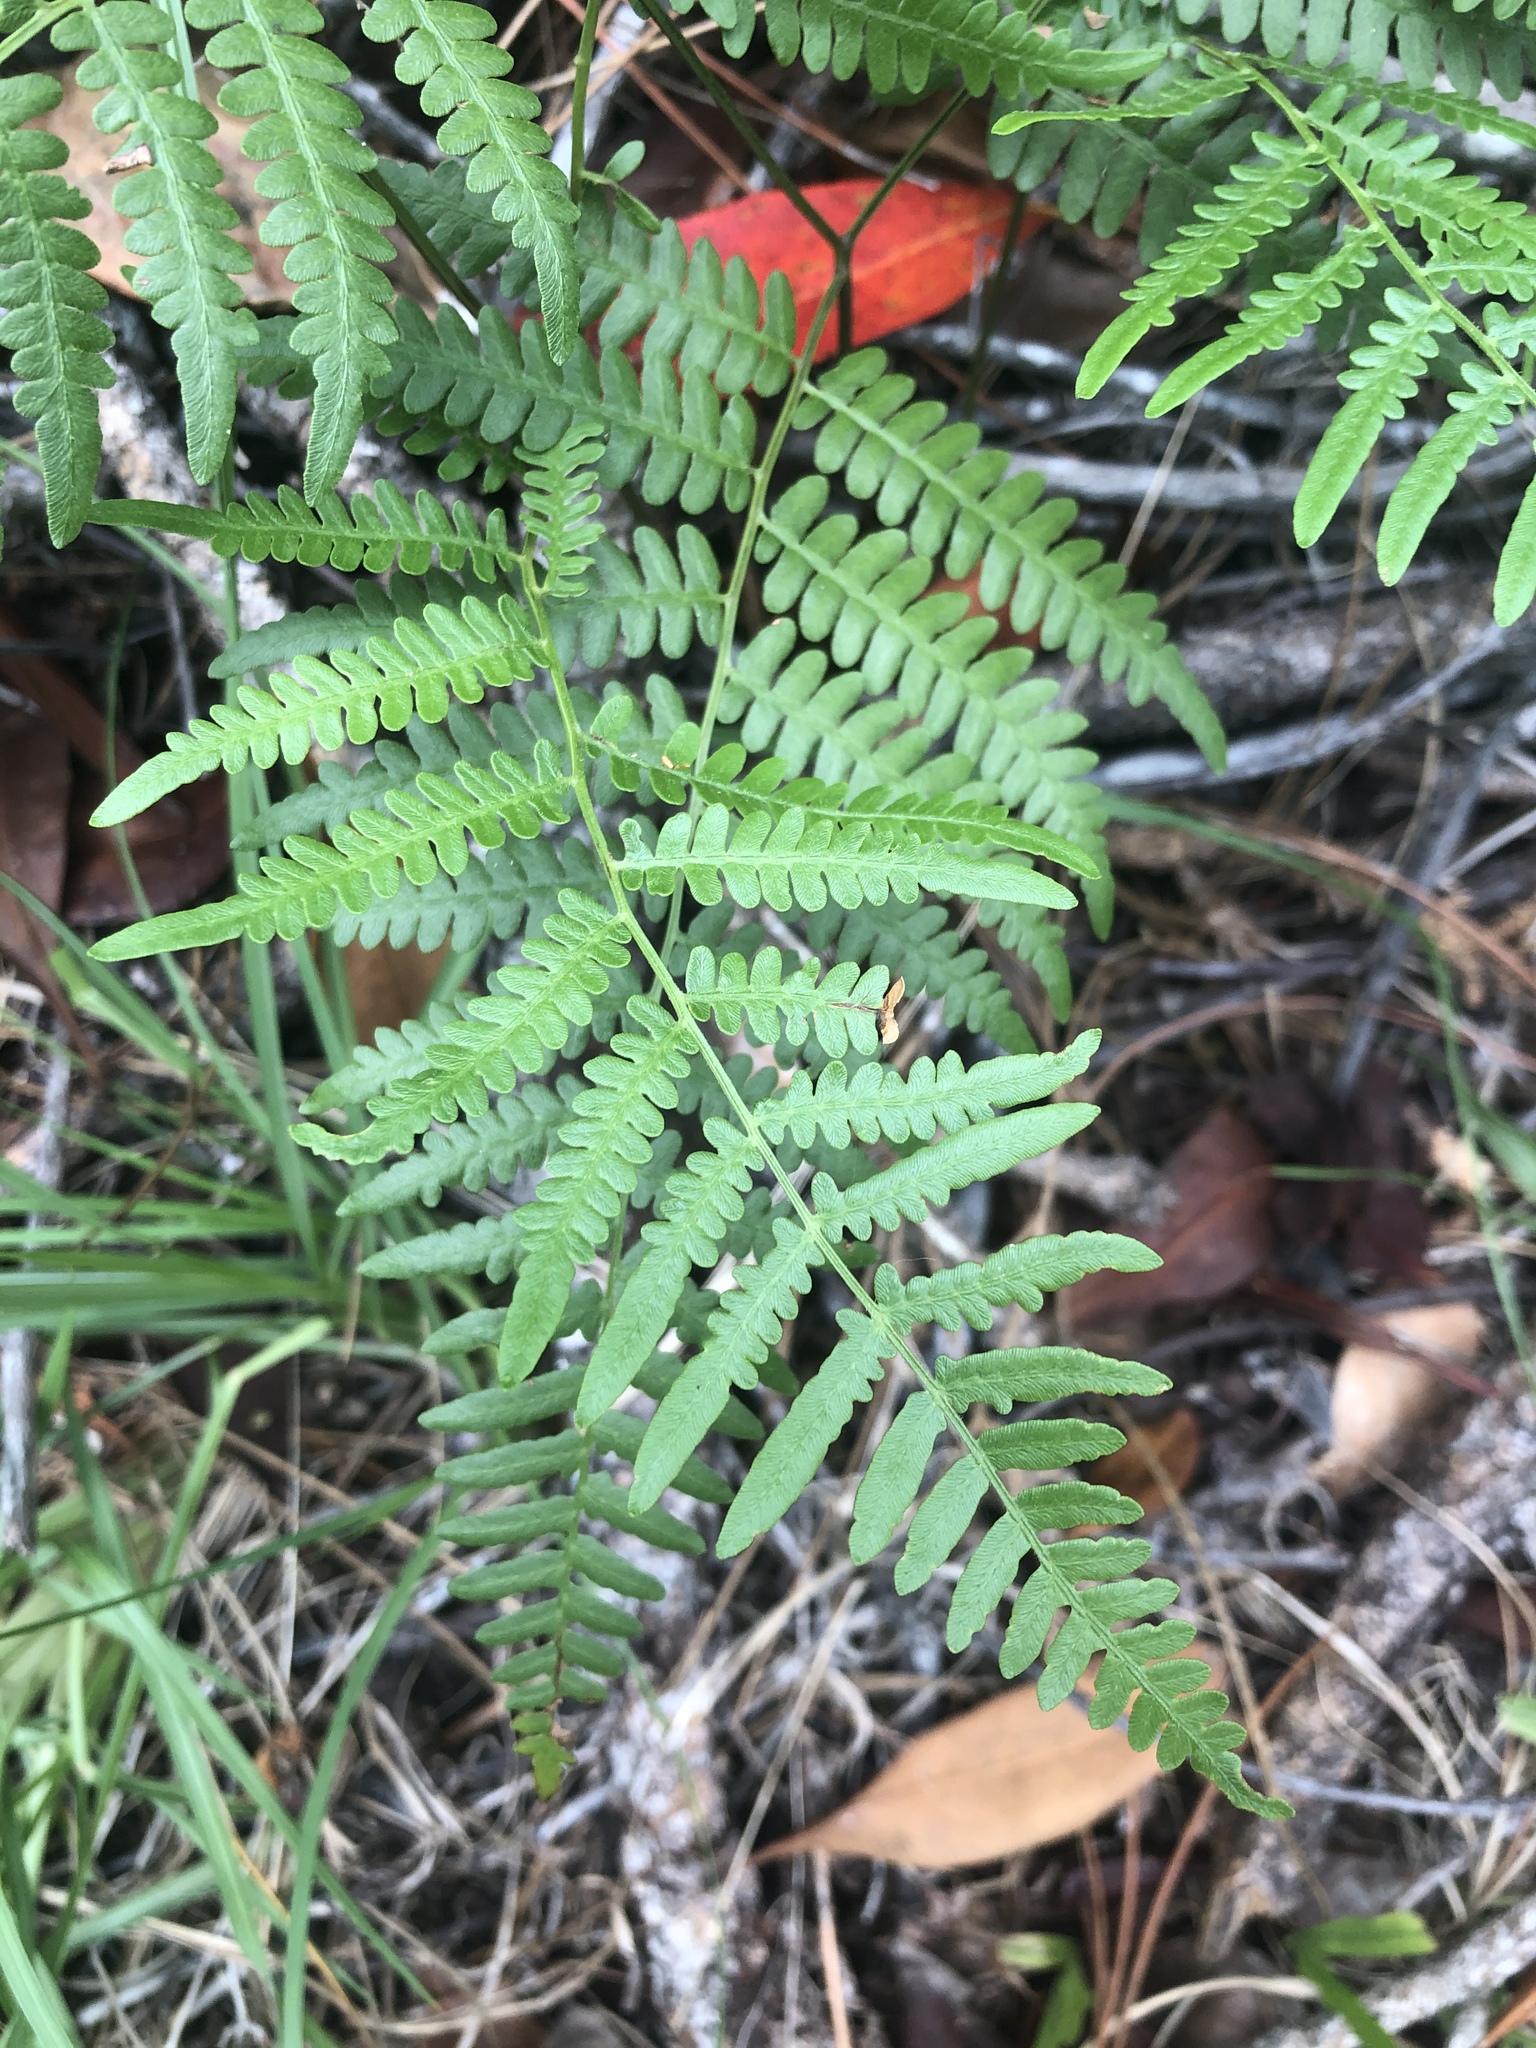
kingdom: Plantae
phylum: Tracheophyta
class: Polypodiopsida
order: Polypodiales
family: Dennstaedtiaceae
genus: Pteridium
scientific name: Pteridium
